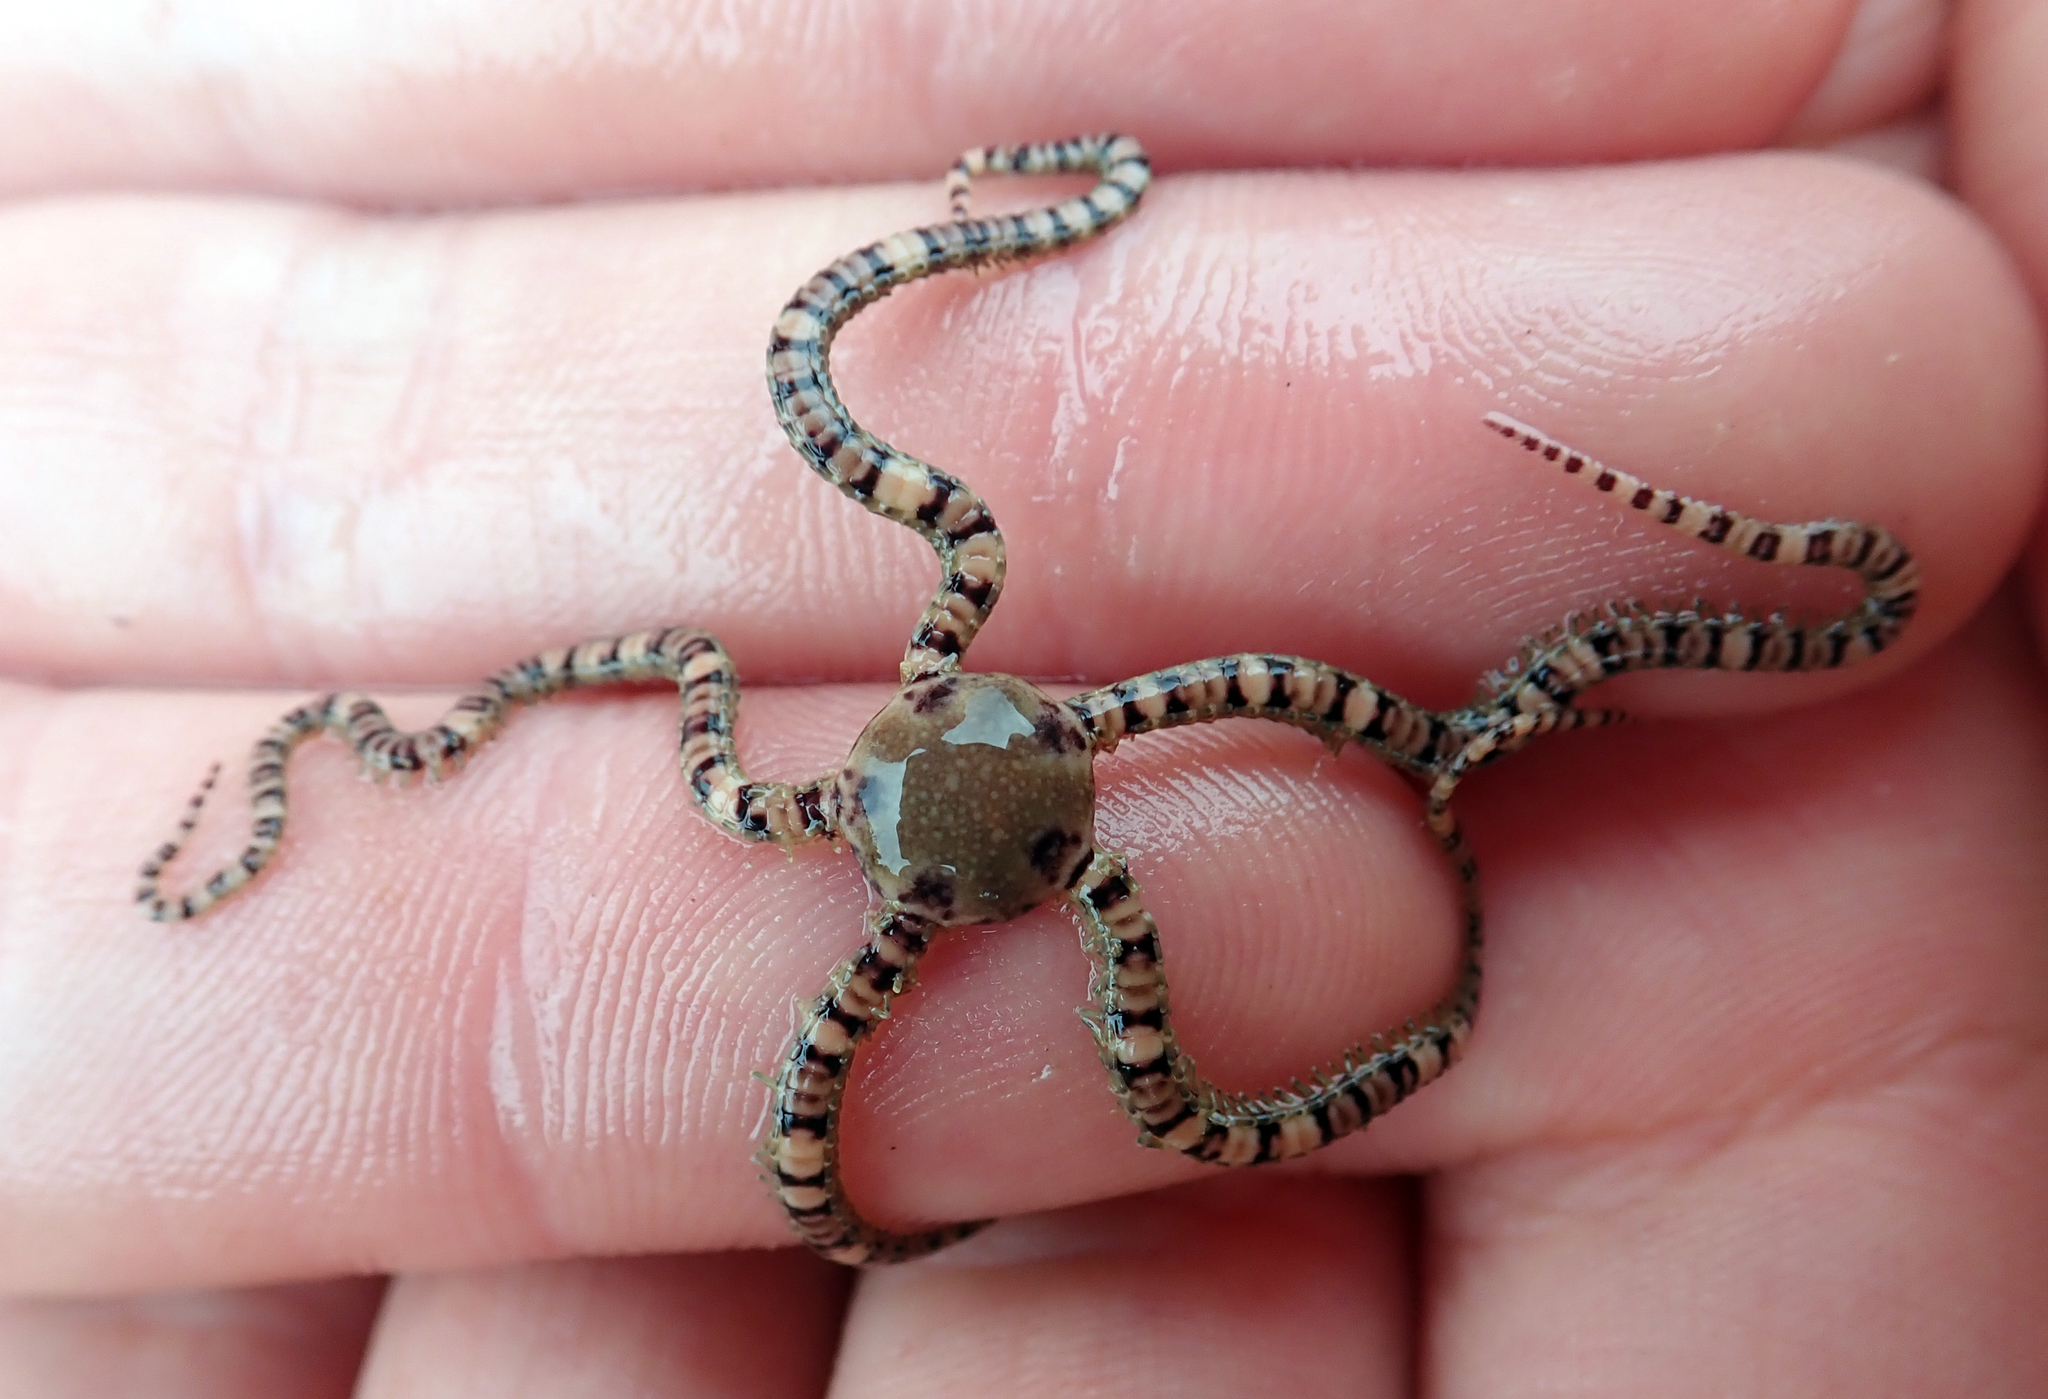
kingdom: Animalia
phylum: Echinodermata
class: Ophiuroidea
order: Amphilepidida
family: Ophionereididae
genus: Ophionereis
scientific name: Ophionereis fasciata
